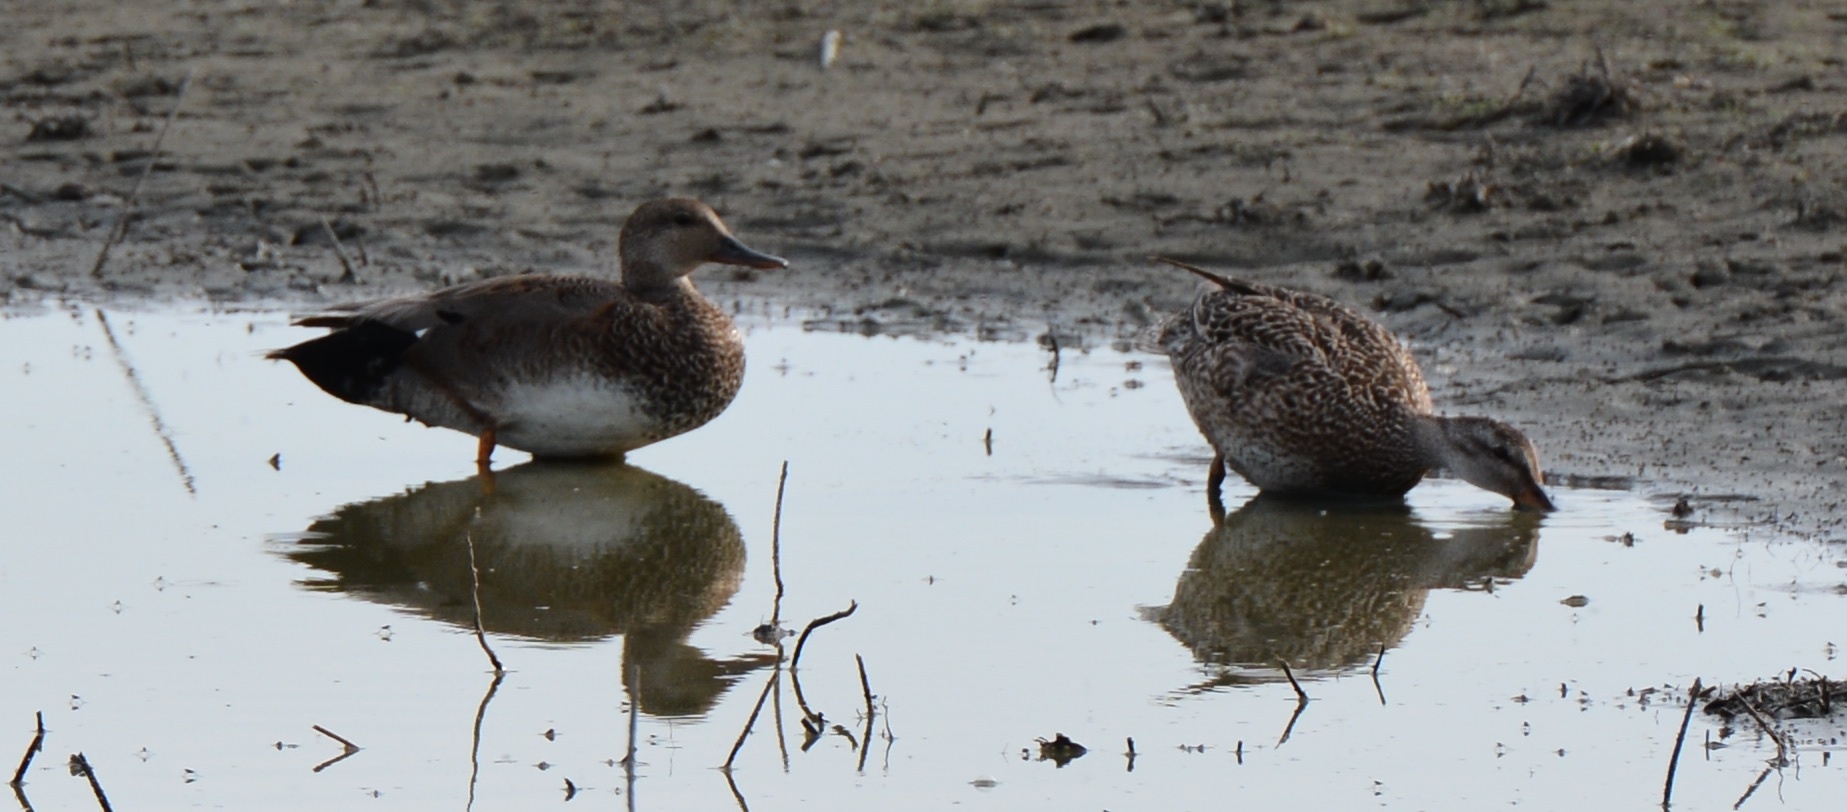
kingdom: Animalia
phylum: Chordata
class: Aves
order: Anseriformes
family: Anatidae
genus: Mareca
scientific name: Mareca strepera
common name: Gadwall
